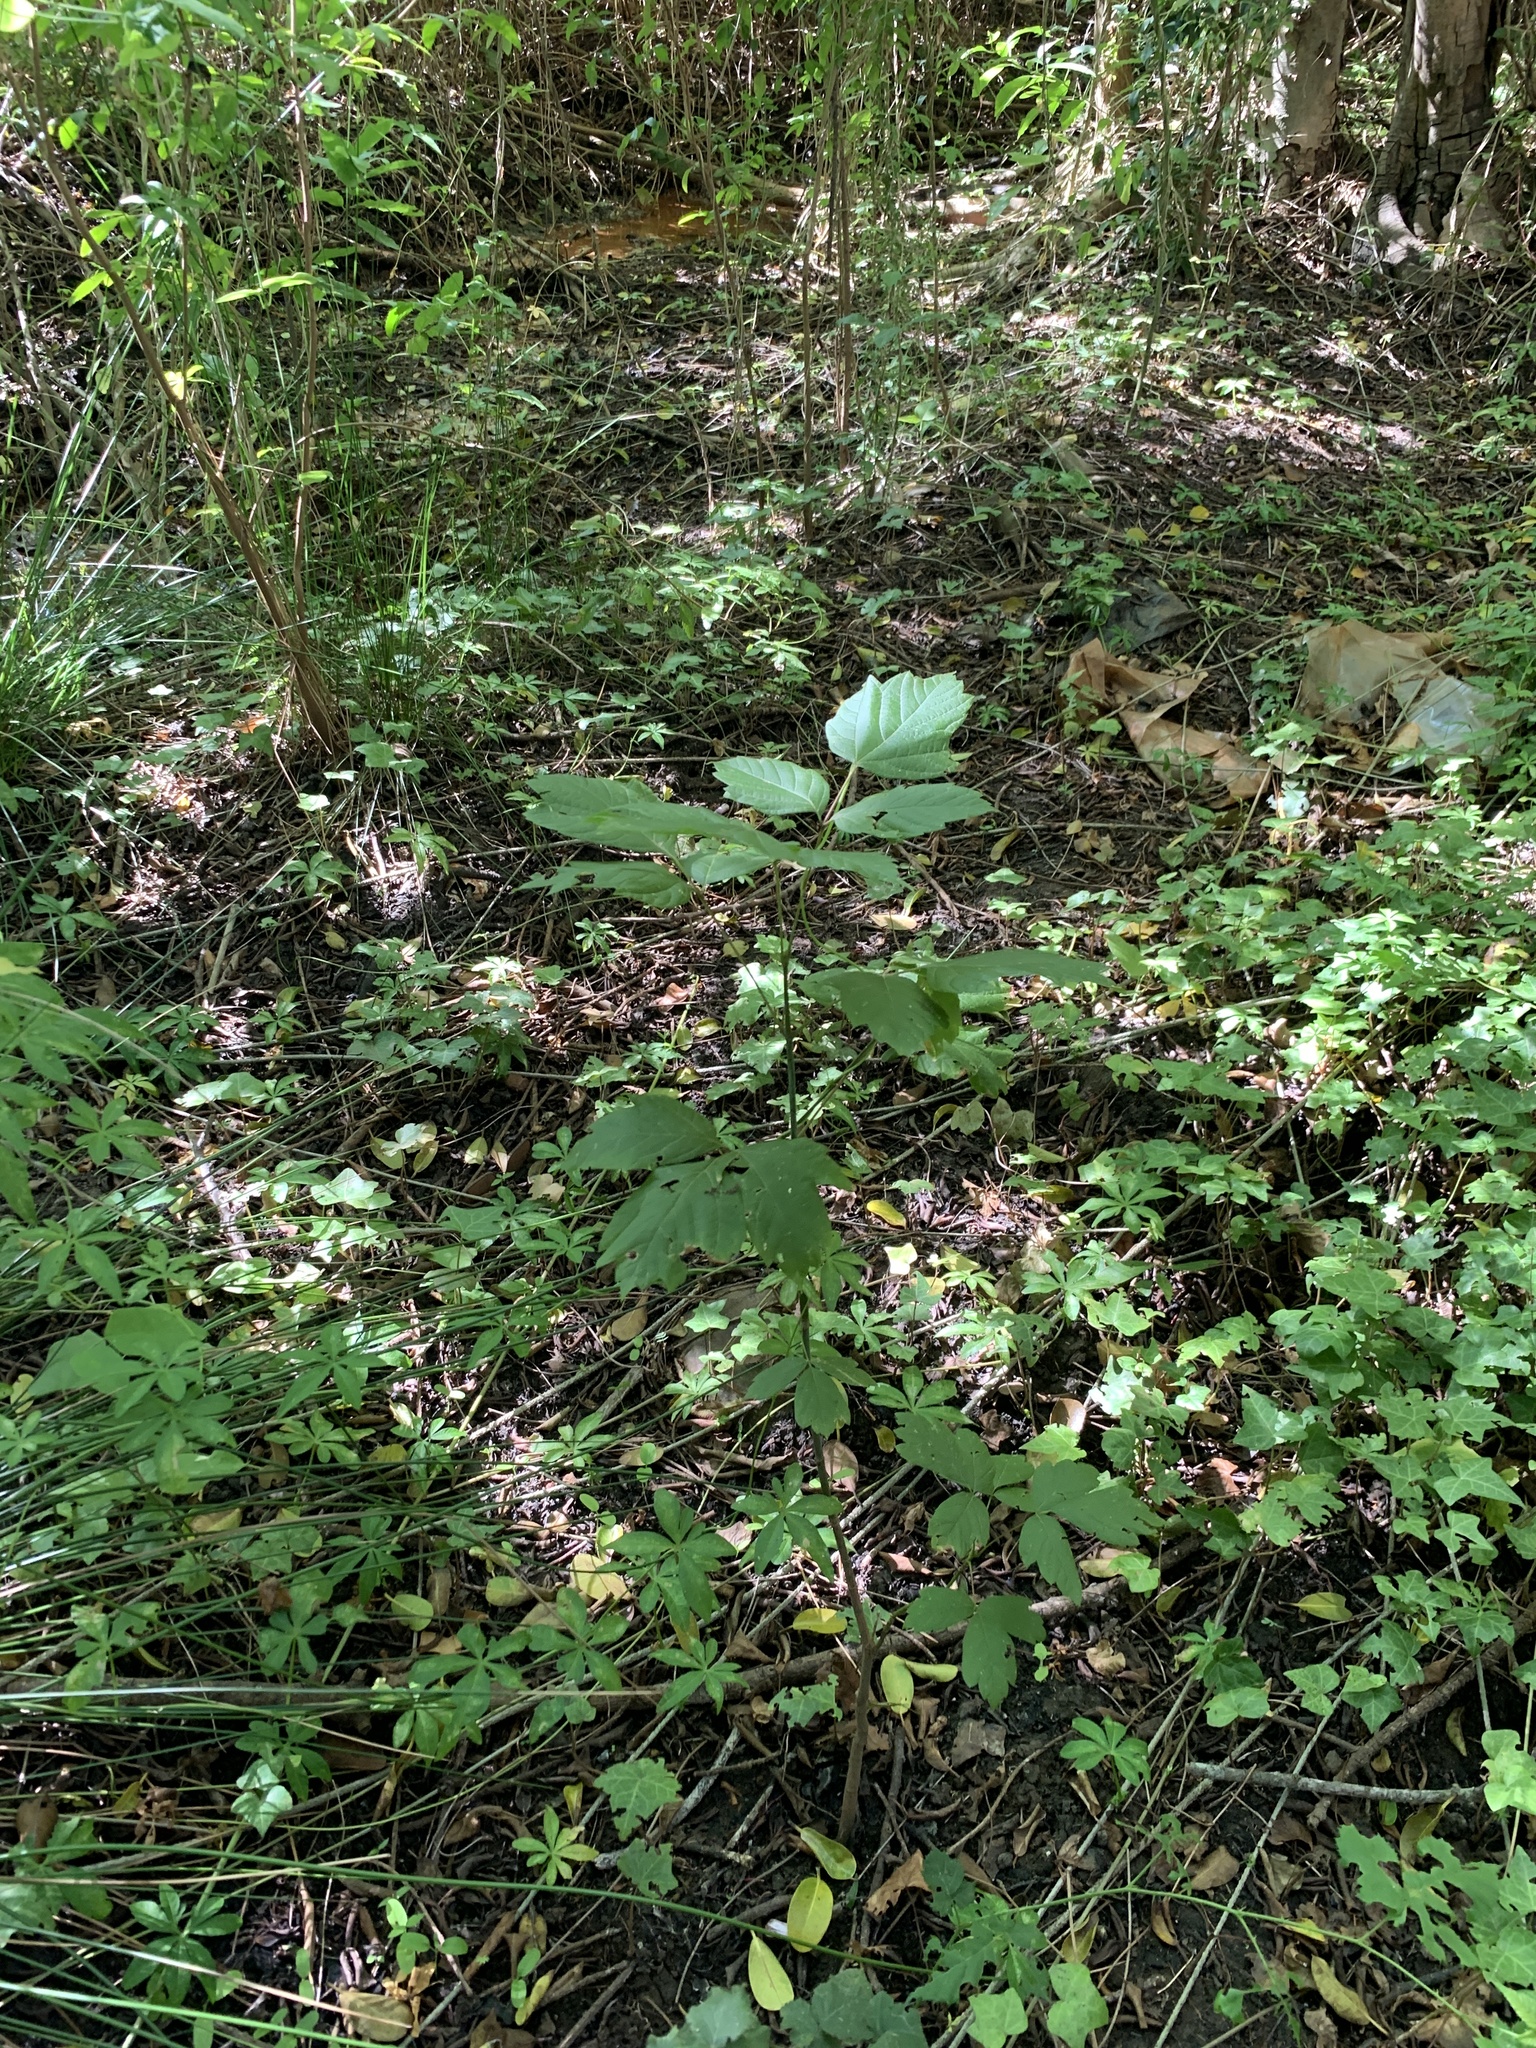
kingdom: Plantae
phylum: Tracheophyta
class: Magnoliopsida
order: Sapindales
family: Sapindaceae
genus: Acer
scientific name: Acer negundo
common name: Ashleaf maple
